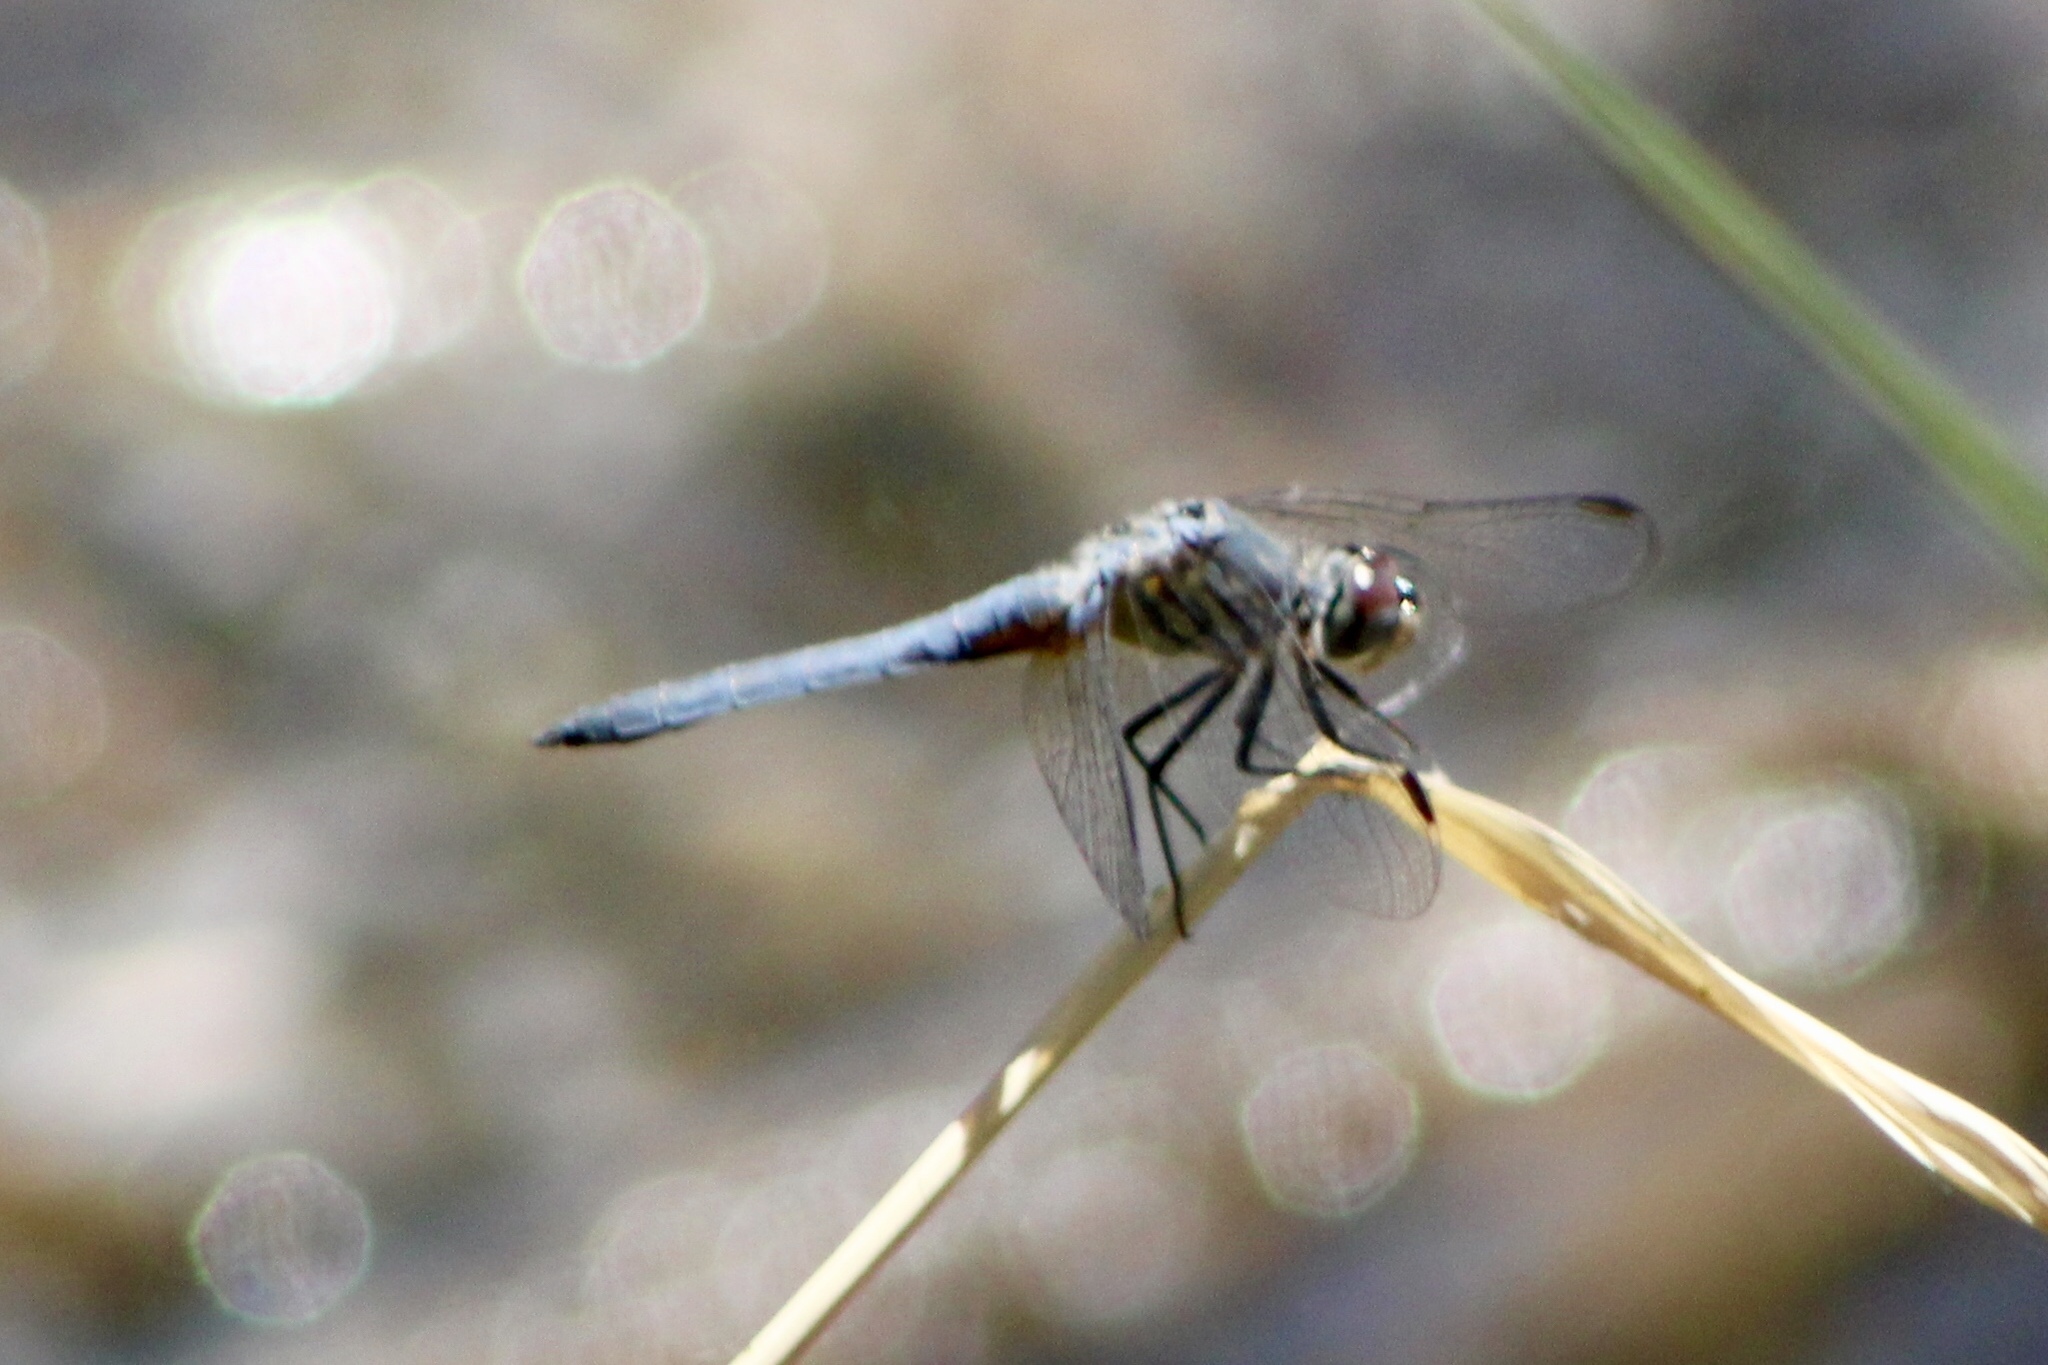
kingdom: Animalia
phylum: Arthropoda
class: Insecta
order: Odonata
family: Libellulidae
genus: Pachydiplax
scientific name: Pachydiplax longipennis
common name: Blue dasher
